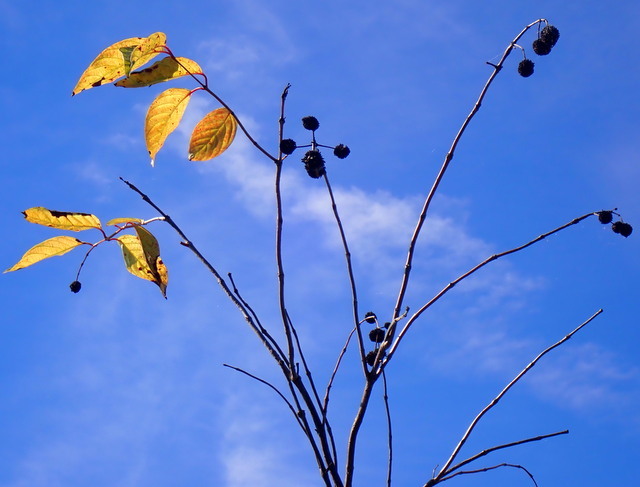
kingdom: Plantae
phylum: Tracheophyta
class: Magnoliopsida
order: Gentianales
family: Rubiaceae
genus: Cephalanthus
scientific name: Cephalanthus occidentalis
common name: Button-willow
